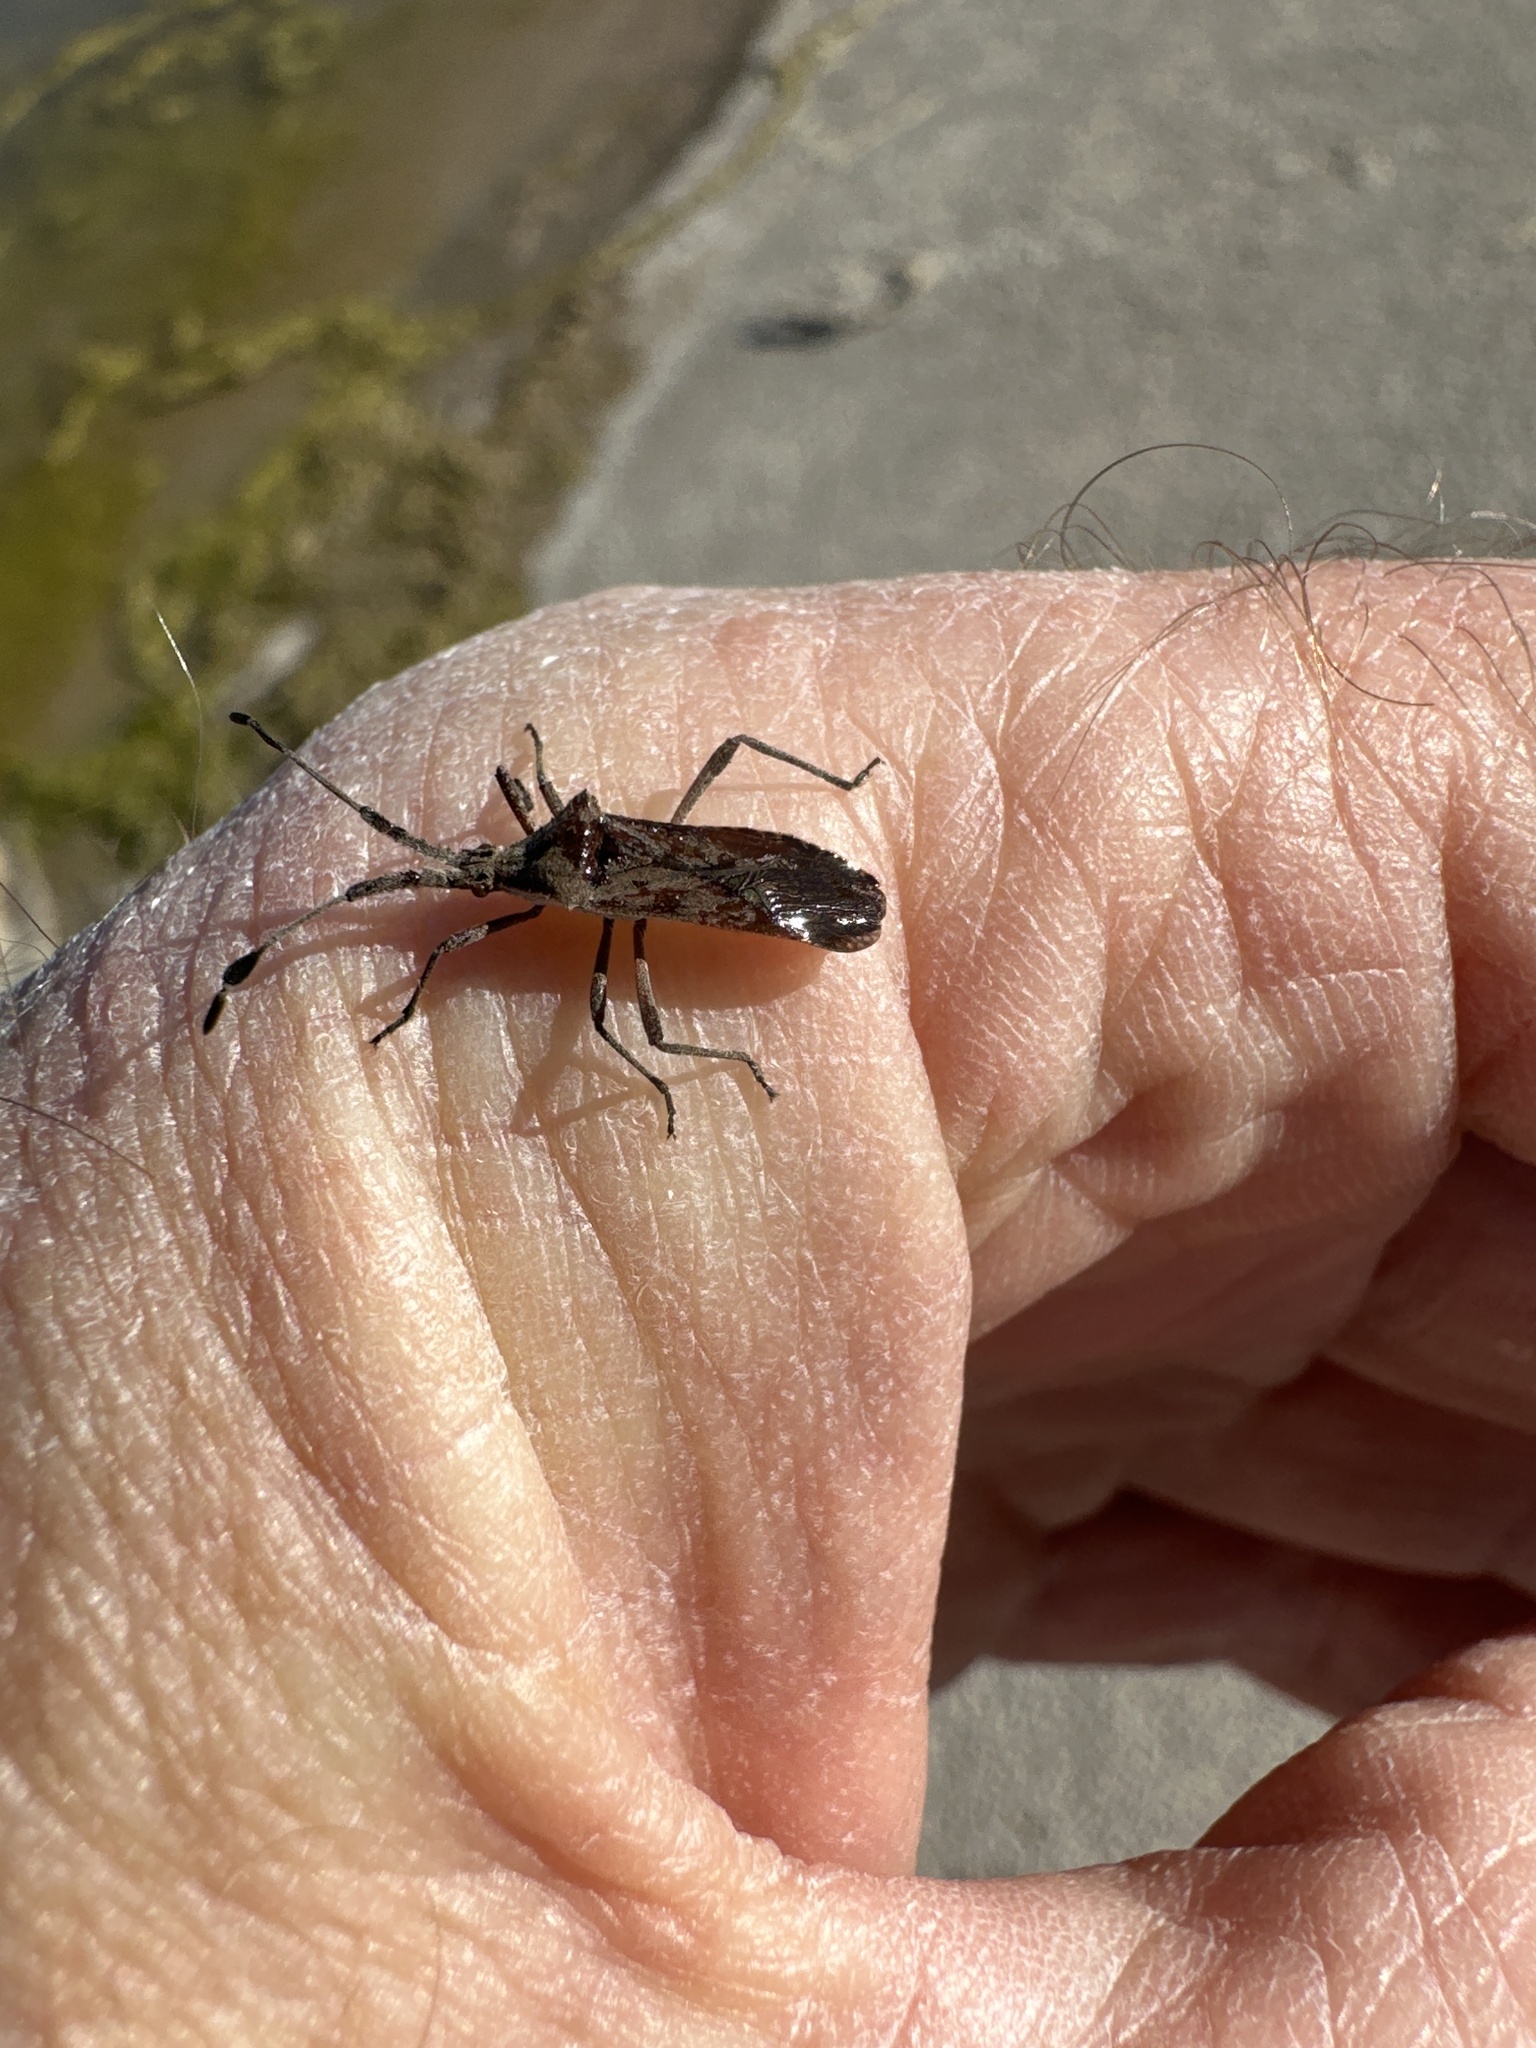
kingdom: Animalia
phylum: Arthropoda
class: Insecta
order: Hemiptera
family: Coreidae
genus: Chariesterus
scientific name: Chariesterus antennator
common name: Flat horned coreid
